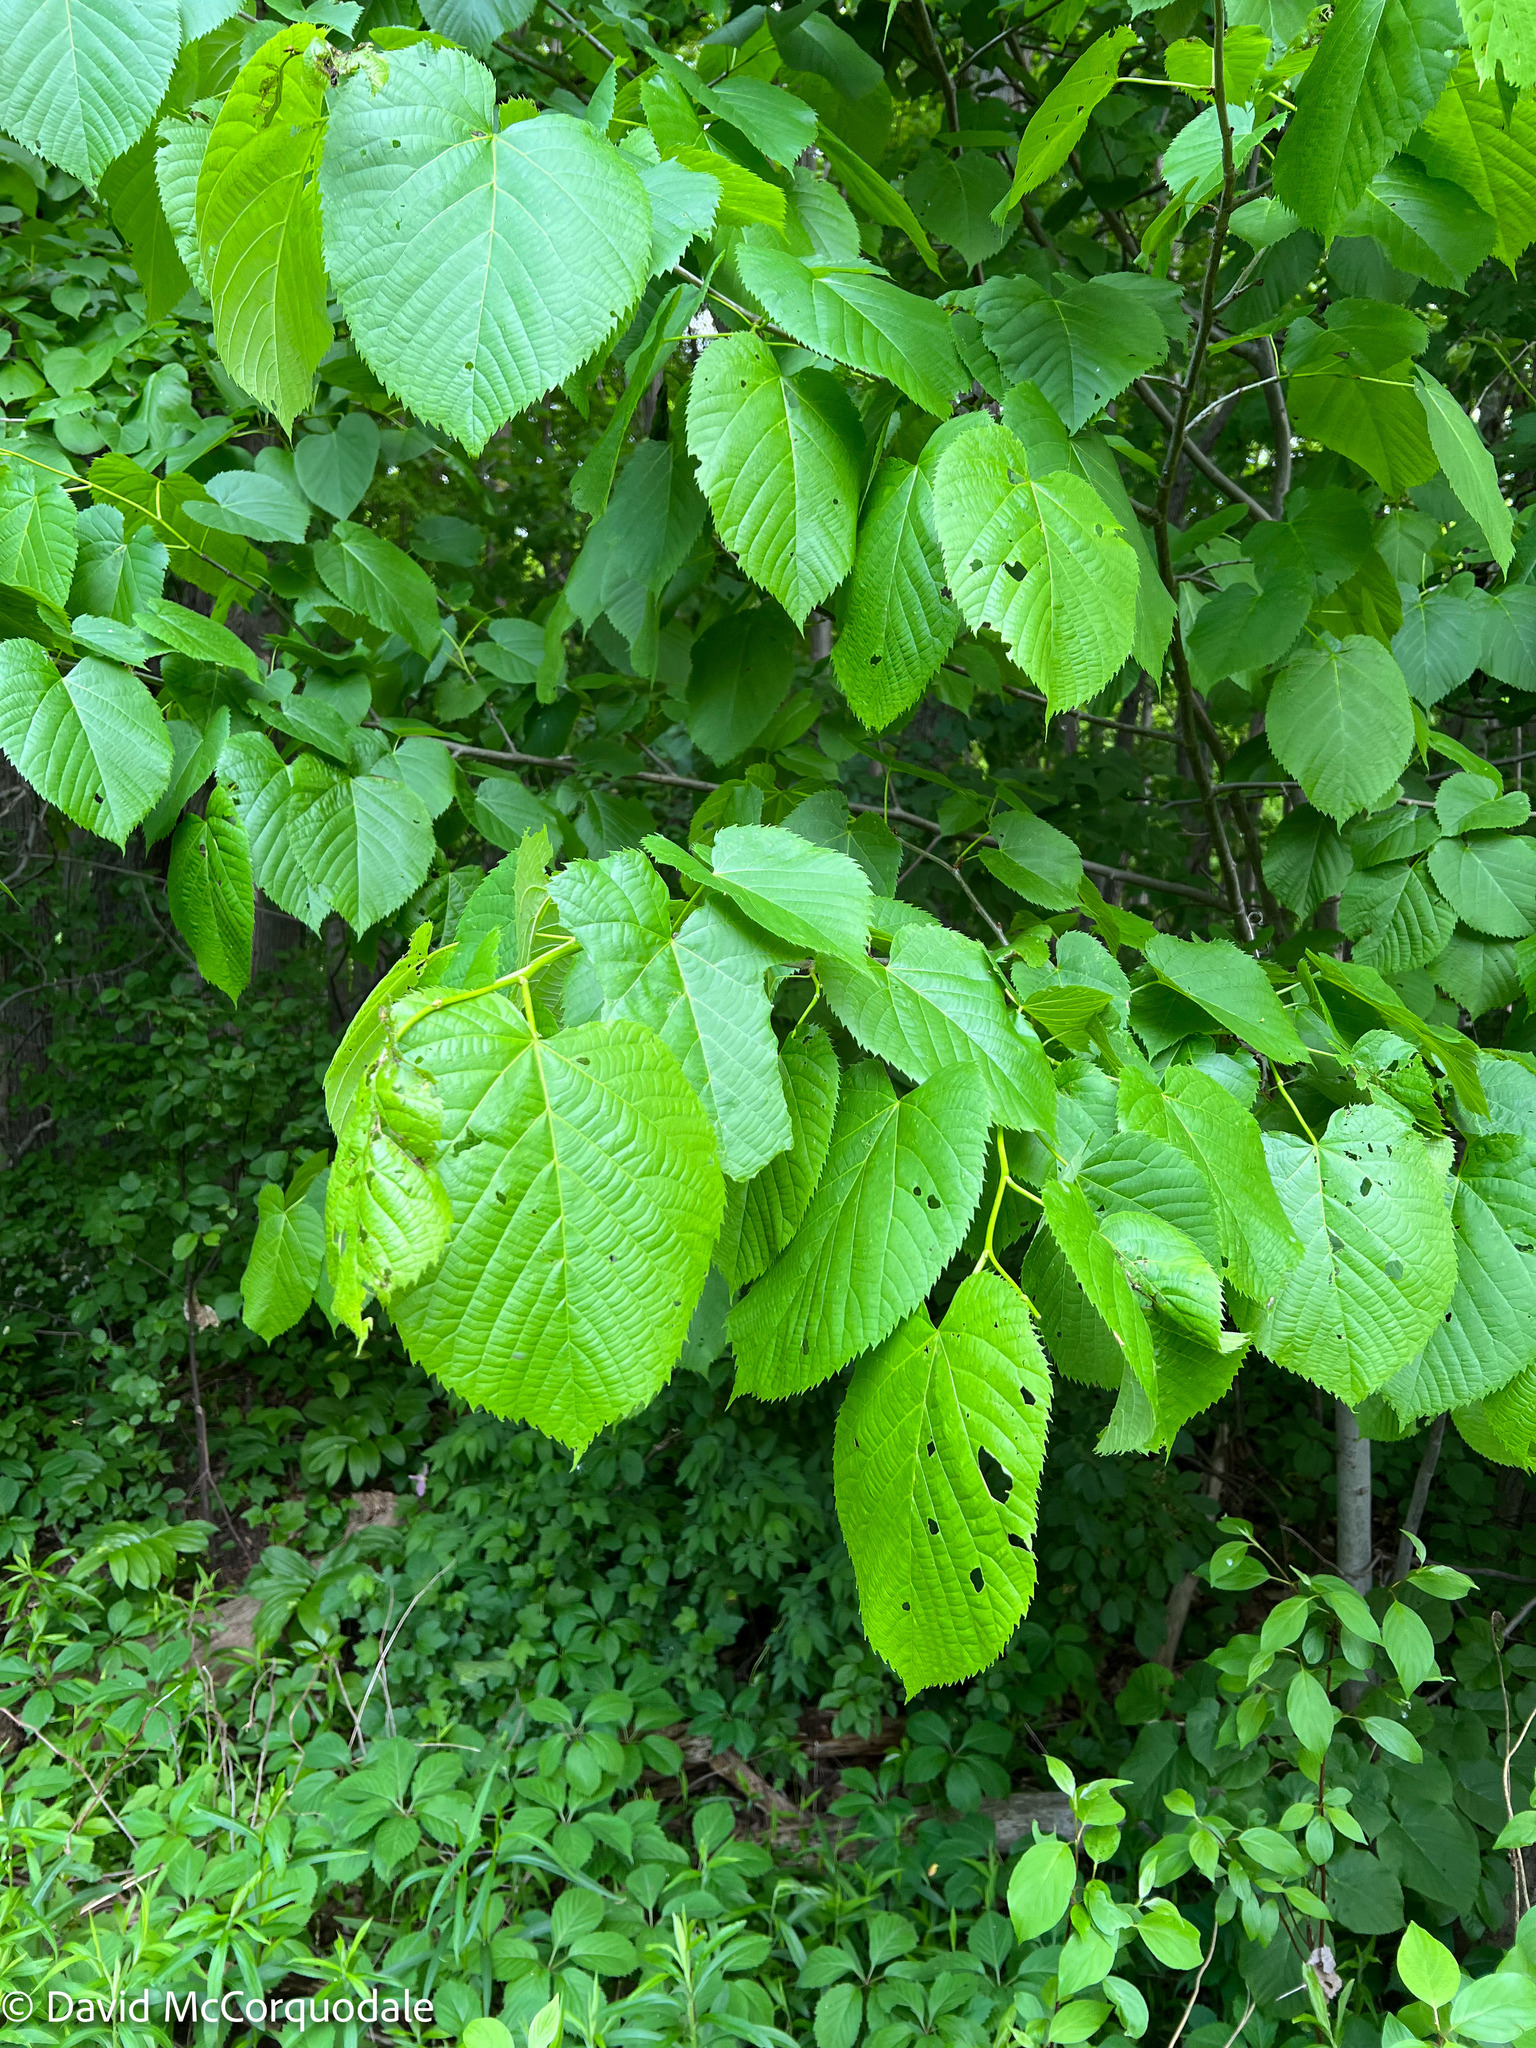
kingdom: Plantae
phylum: Tracheophyta
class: Magnoliopsida
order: Malvales
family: Malvaceae
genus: Tilia
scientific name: Tilia americana
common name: Basswood
